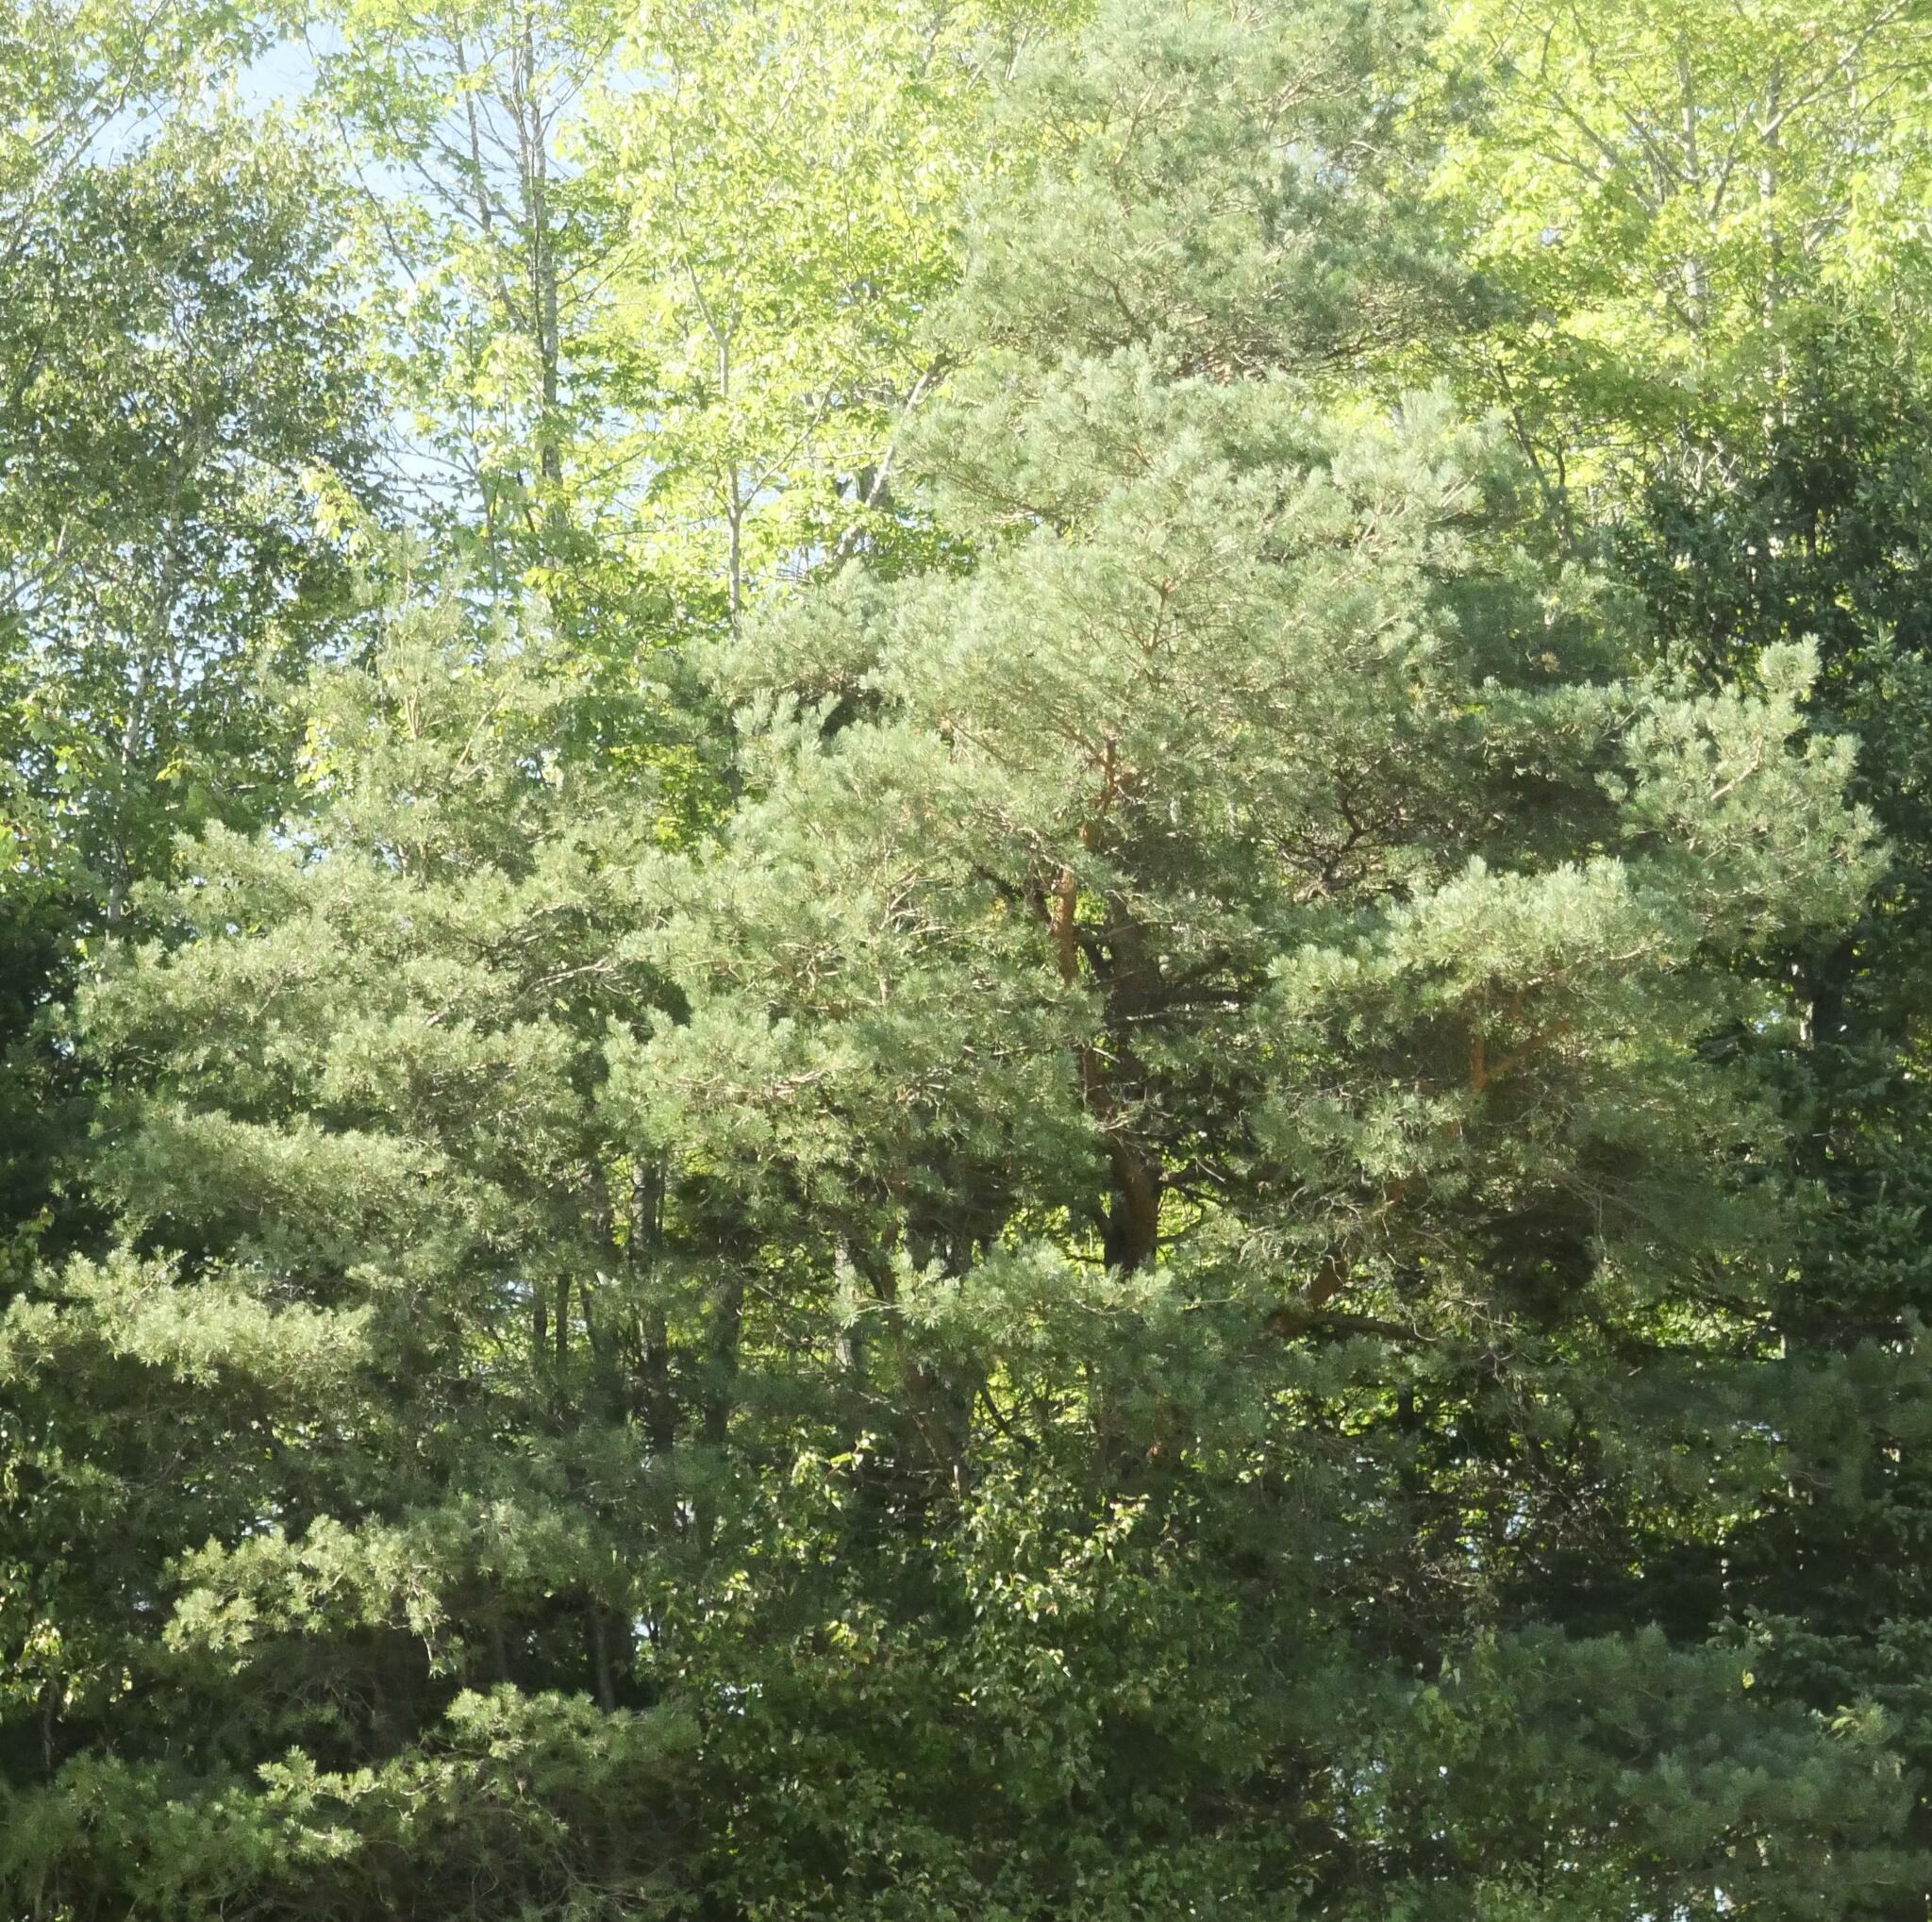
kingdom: Plantae
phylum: Tracheophyta
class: Pinopsida
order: Pinales
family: Pinaceae
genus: Pinus
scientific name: Pinus strobus
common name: Weymouth pine
